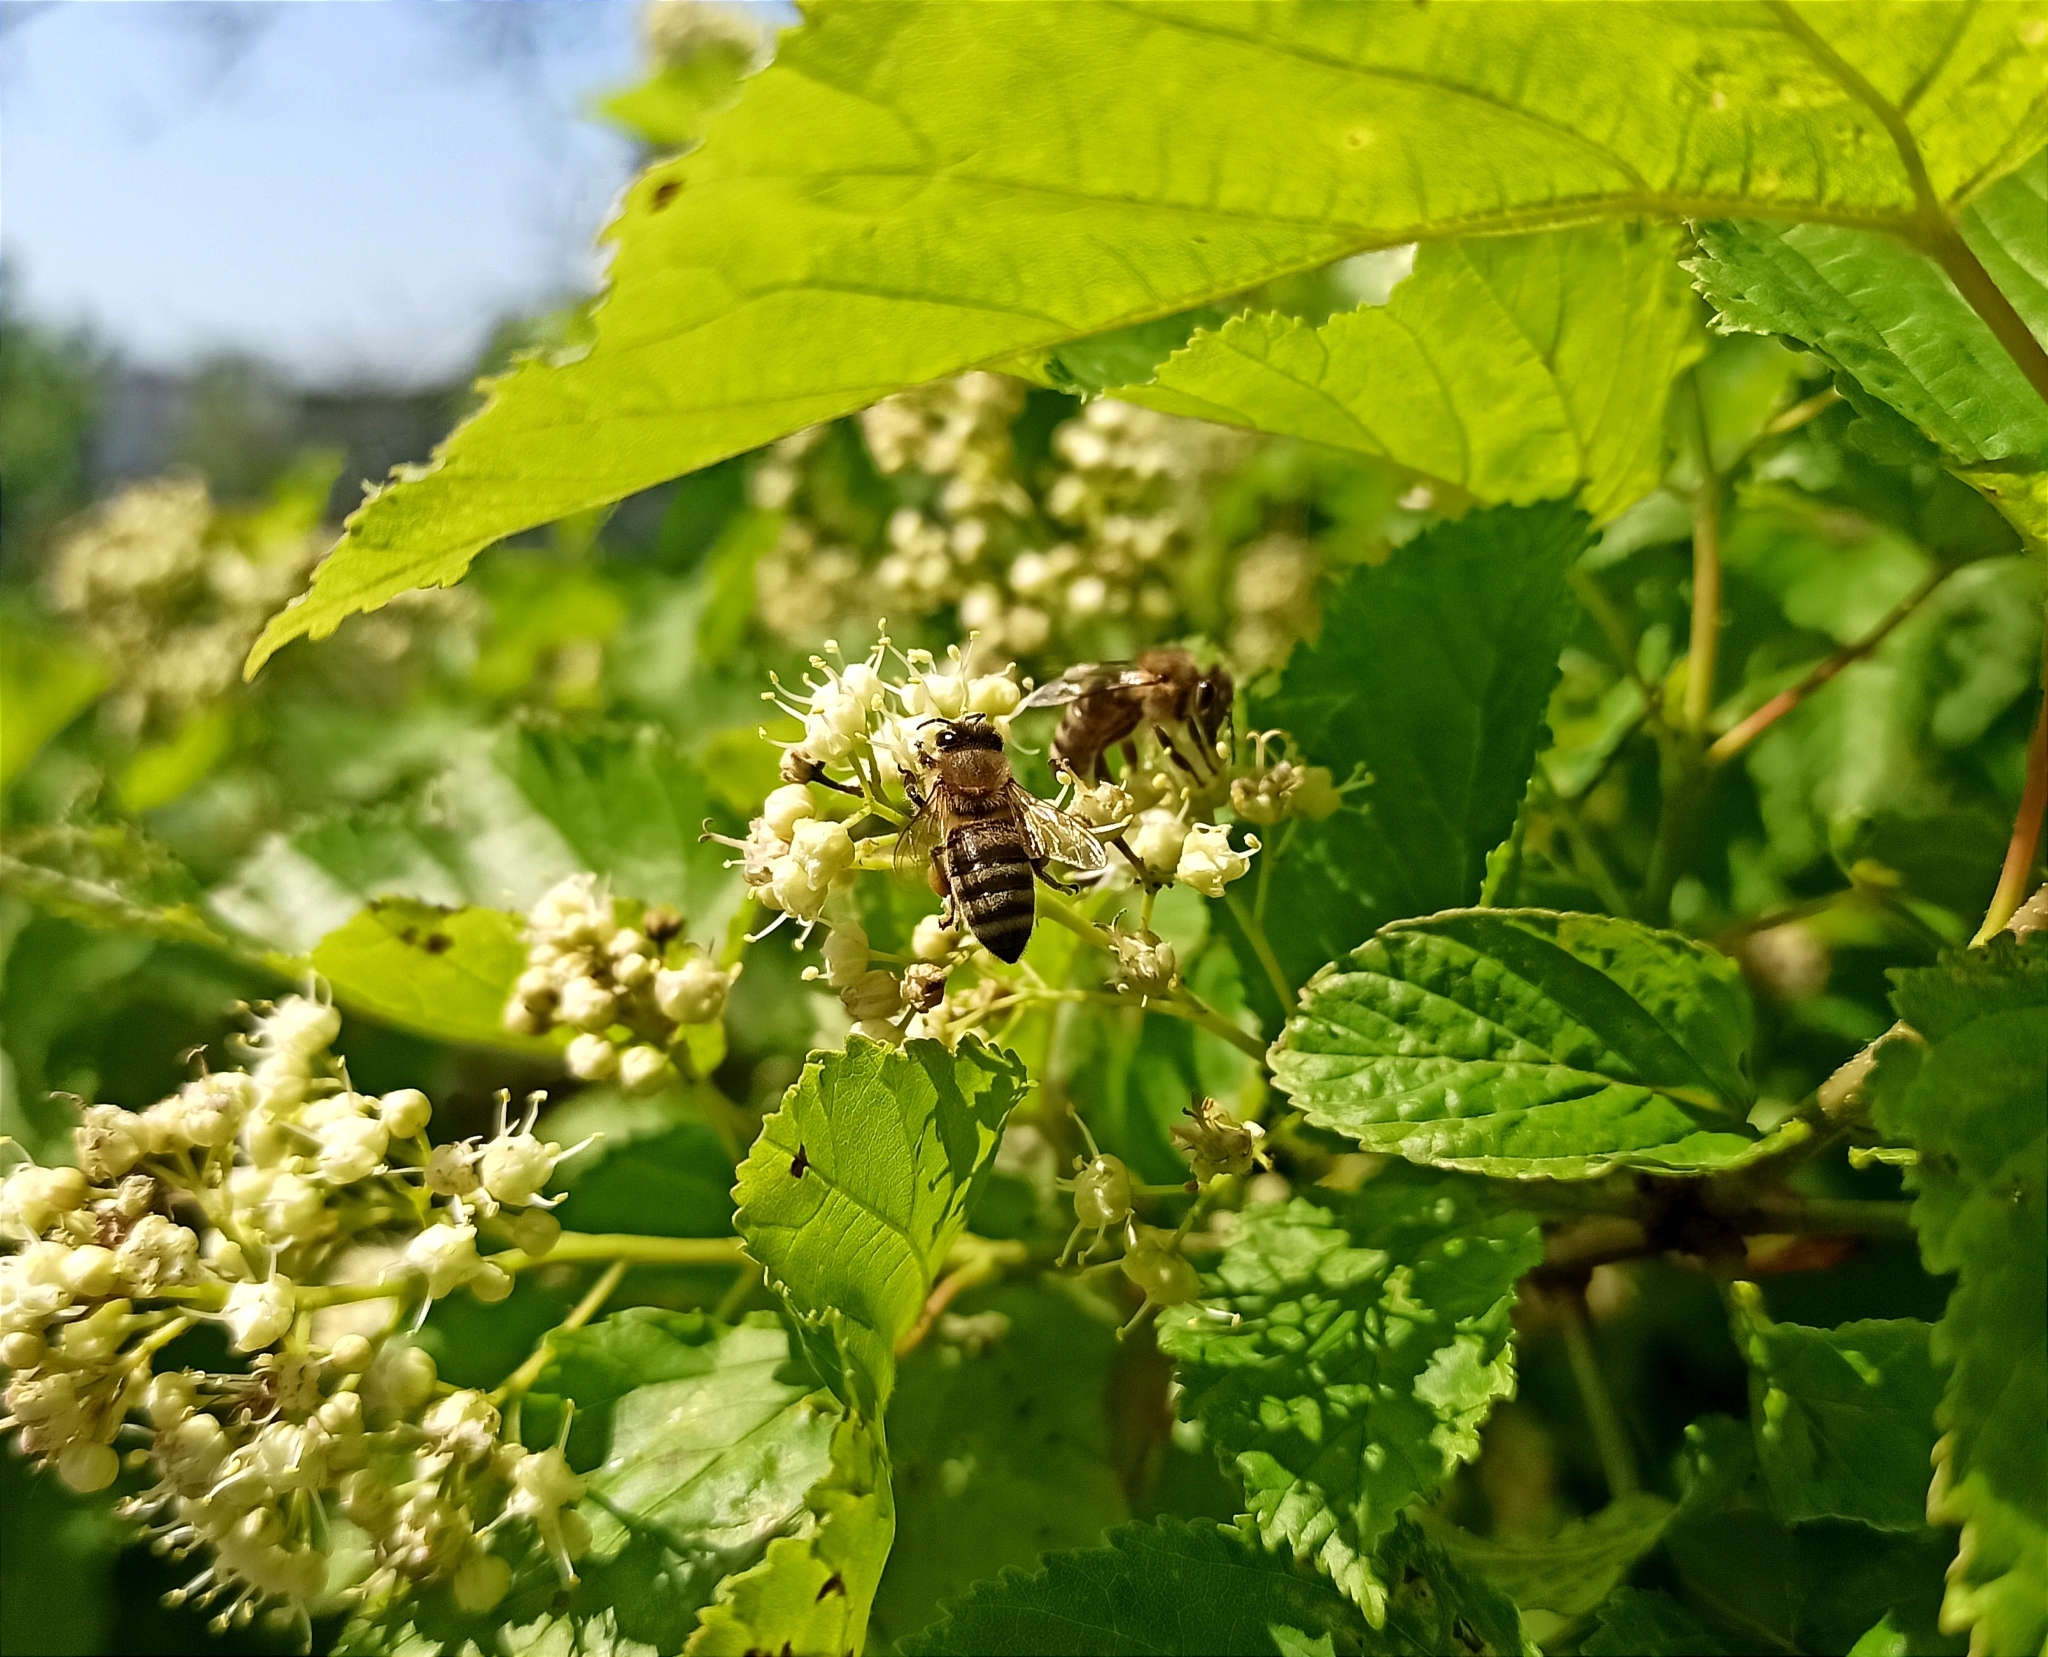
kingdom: Animalia
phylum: Arthropoda
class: Insecta
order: Hymenoptera
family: Apidae
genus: Apis
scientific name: Apis mellifera
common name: Honey bee
